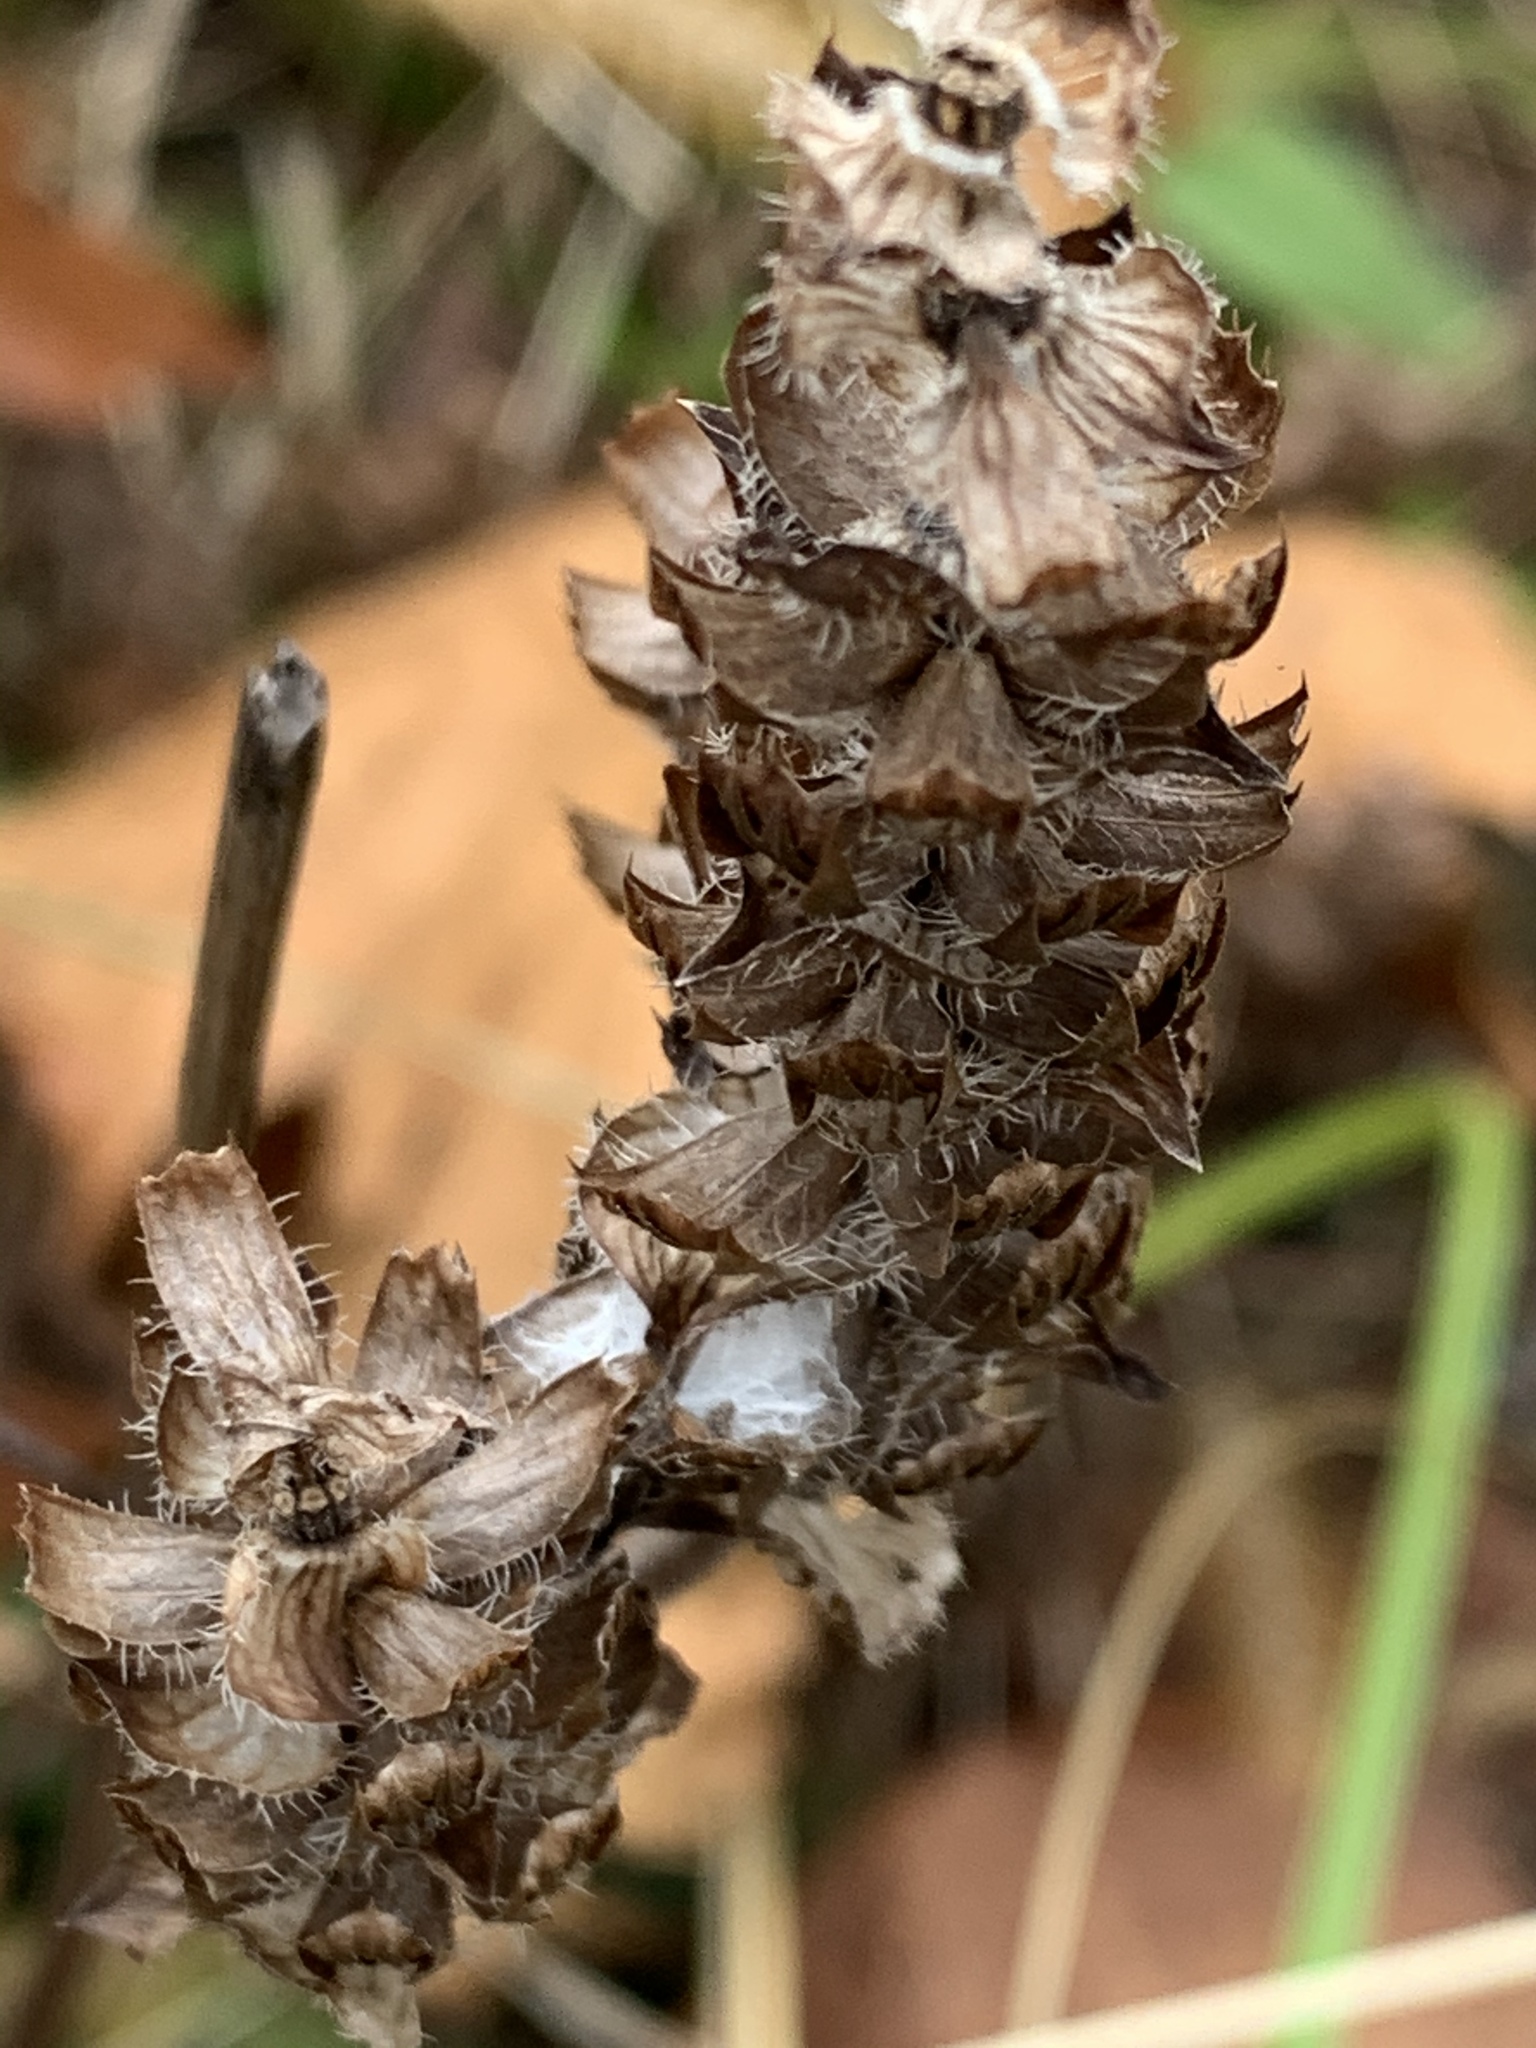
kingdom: Plantae
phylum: Tracheophyta
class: Magnoliopsida
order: Lamiales
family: Lamiaceae
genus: Prunella
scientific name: Prunella vulgaris
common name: Heal-all
